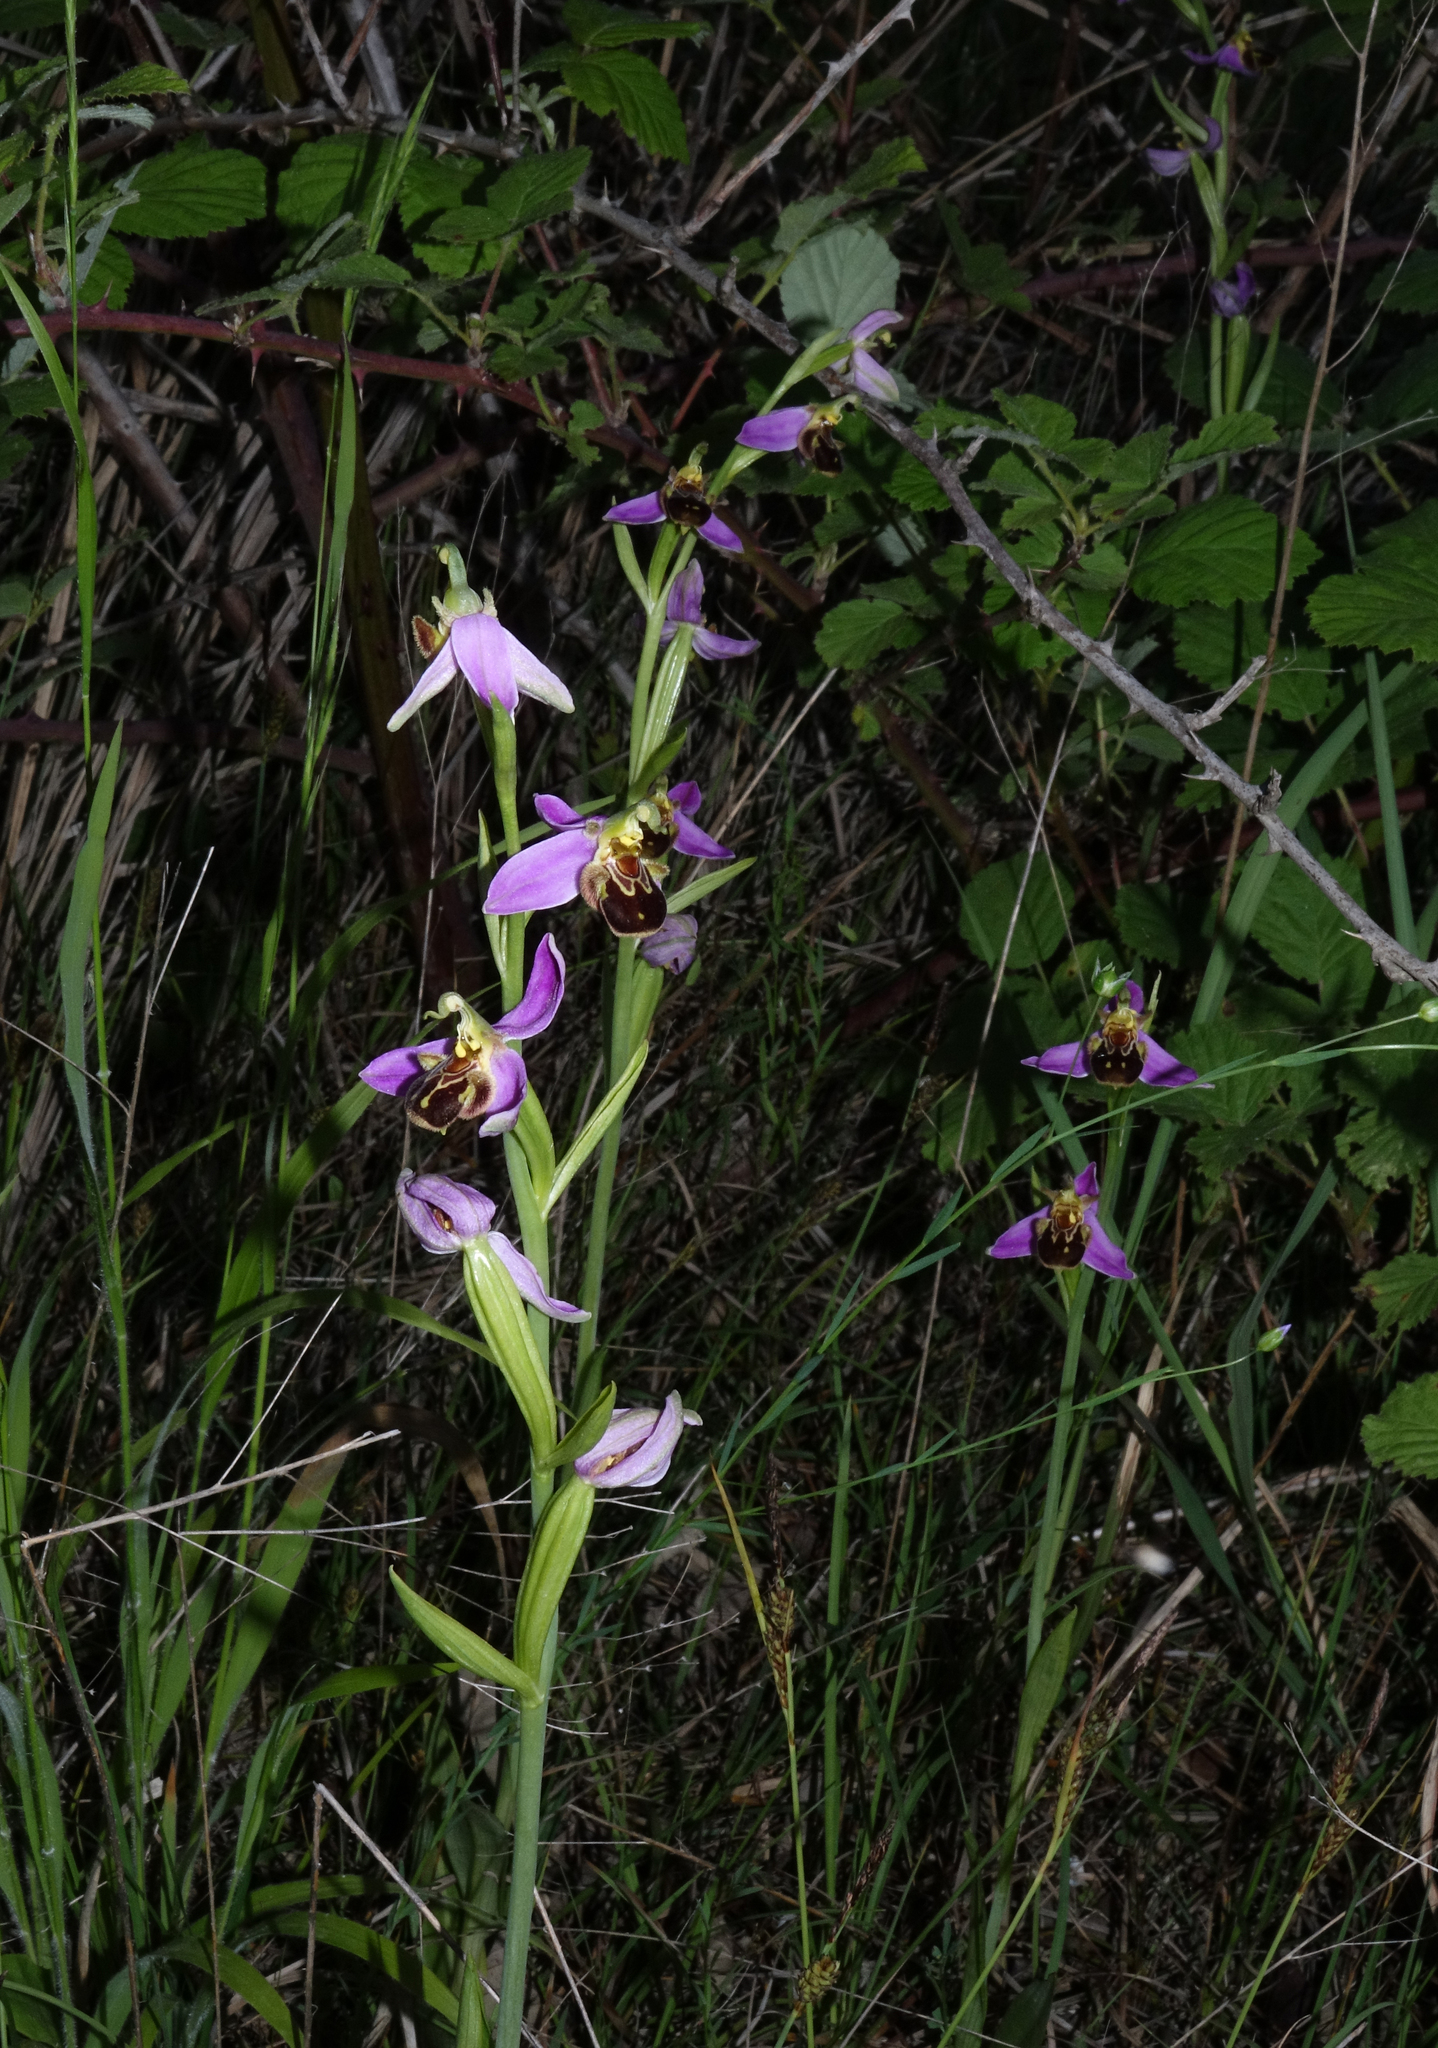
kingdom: Plantae
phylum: Tracheophyta
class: Liliopsida
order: Asparagales
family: Orchidaceae
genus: Ophrys
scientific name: Ophrys apifera
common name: Bee orchid
